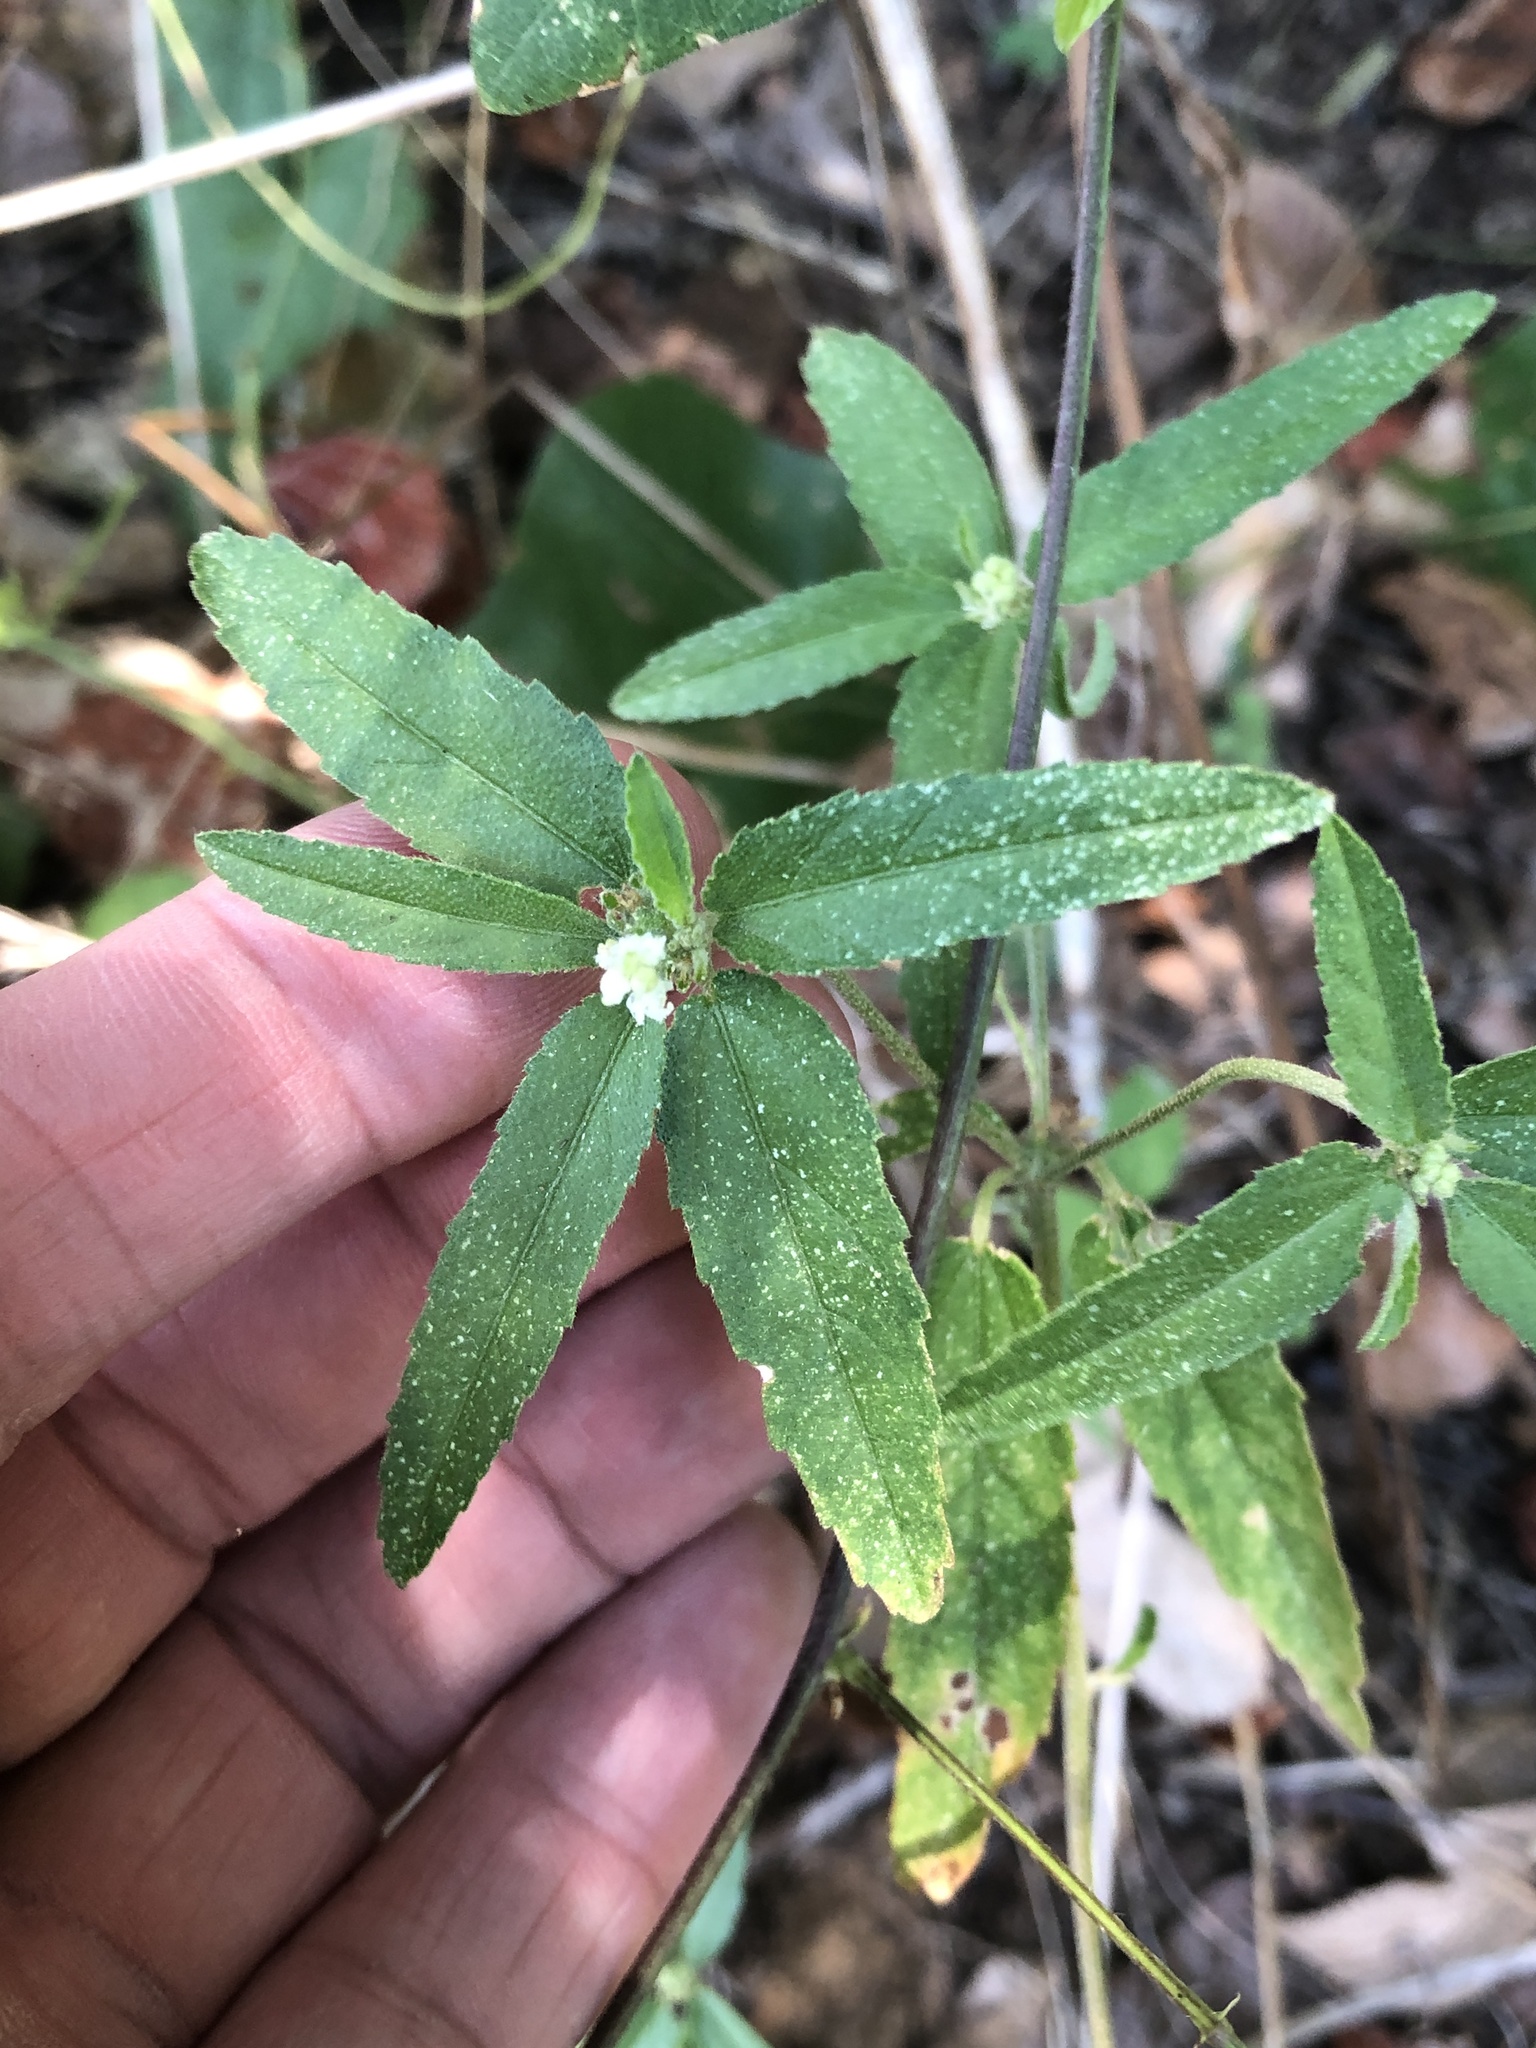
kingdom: Plantae
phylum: Tracheophyta
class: Magnoliopsida
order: Malpighiales
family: Euphorbiaceae
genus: Croton
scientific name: Croton glandulosus
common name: Tropic croton
